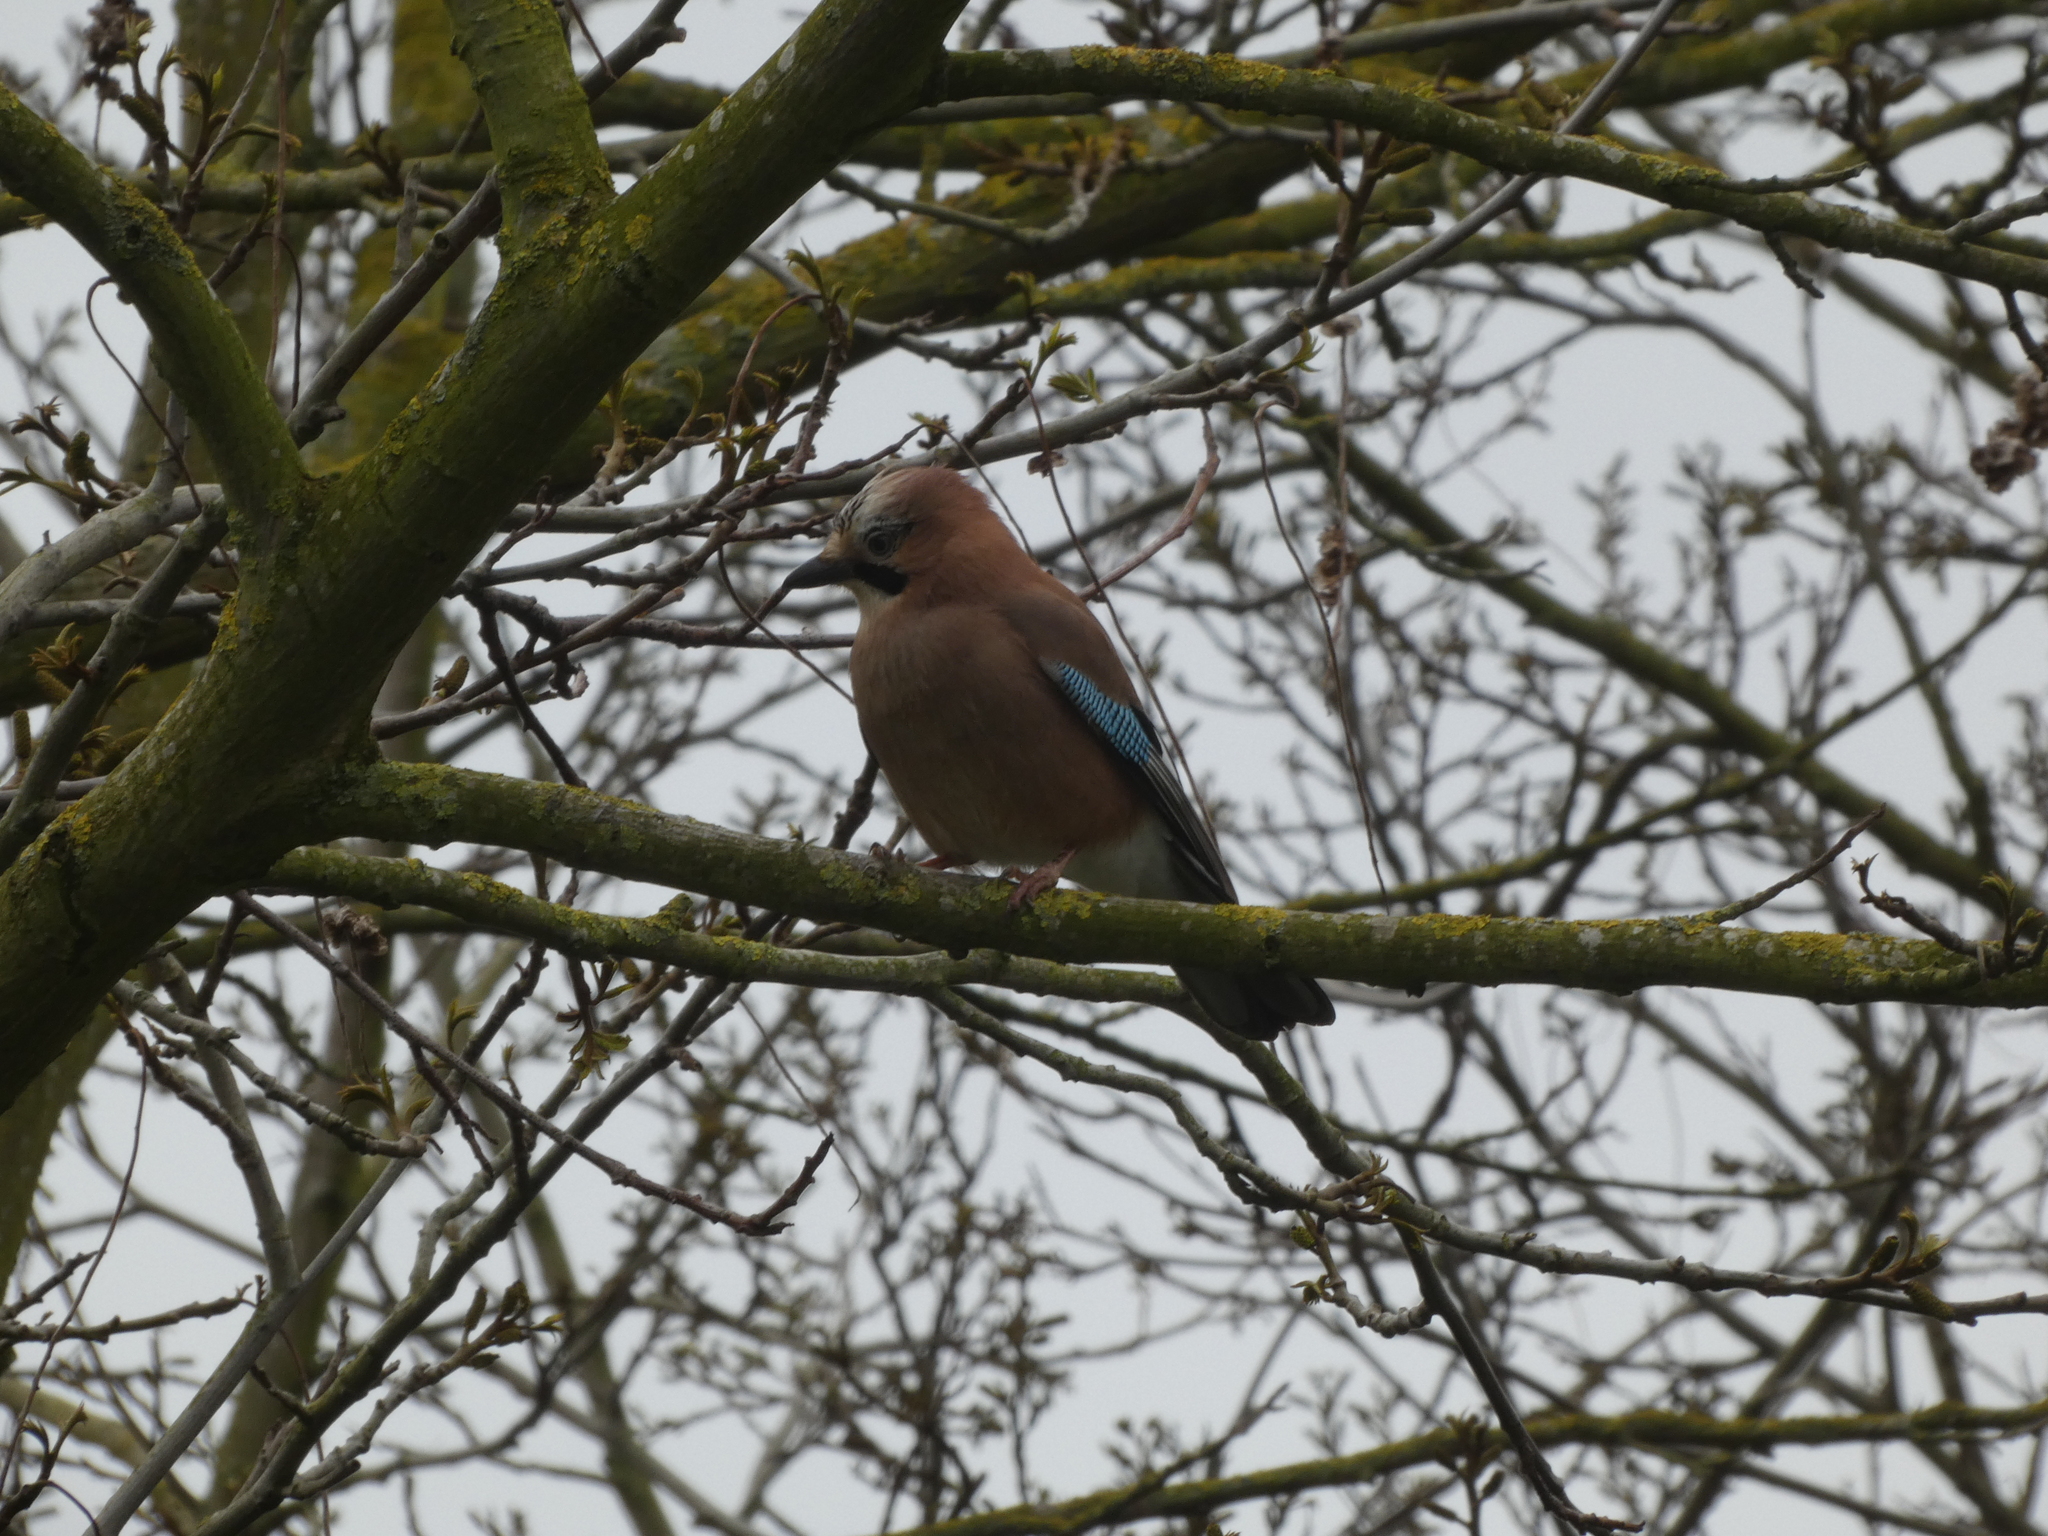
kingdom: Animalia
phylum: Chordata
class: Aves
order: Passeriformes
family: Corvidae
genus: Garrulus
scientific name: Garrulus glandarius
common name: Eurasian jay
